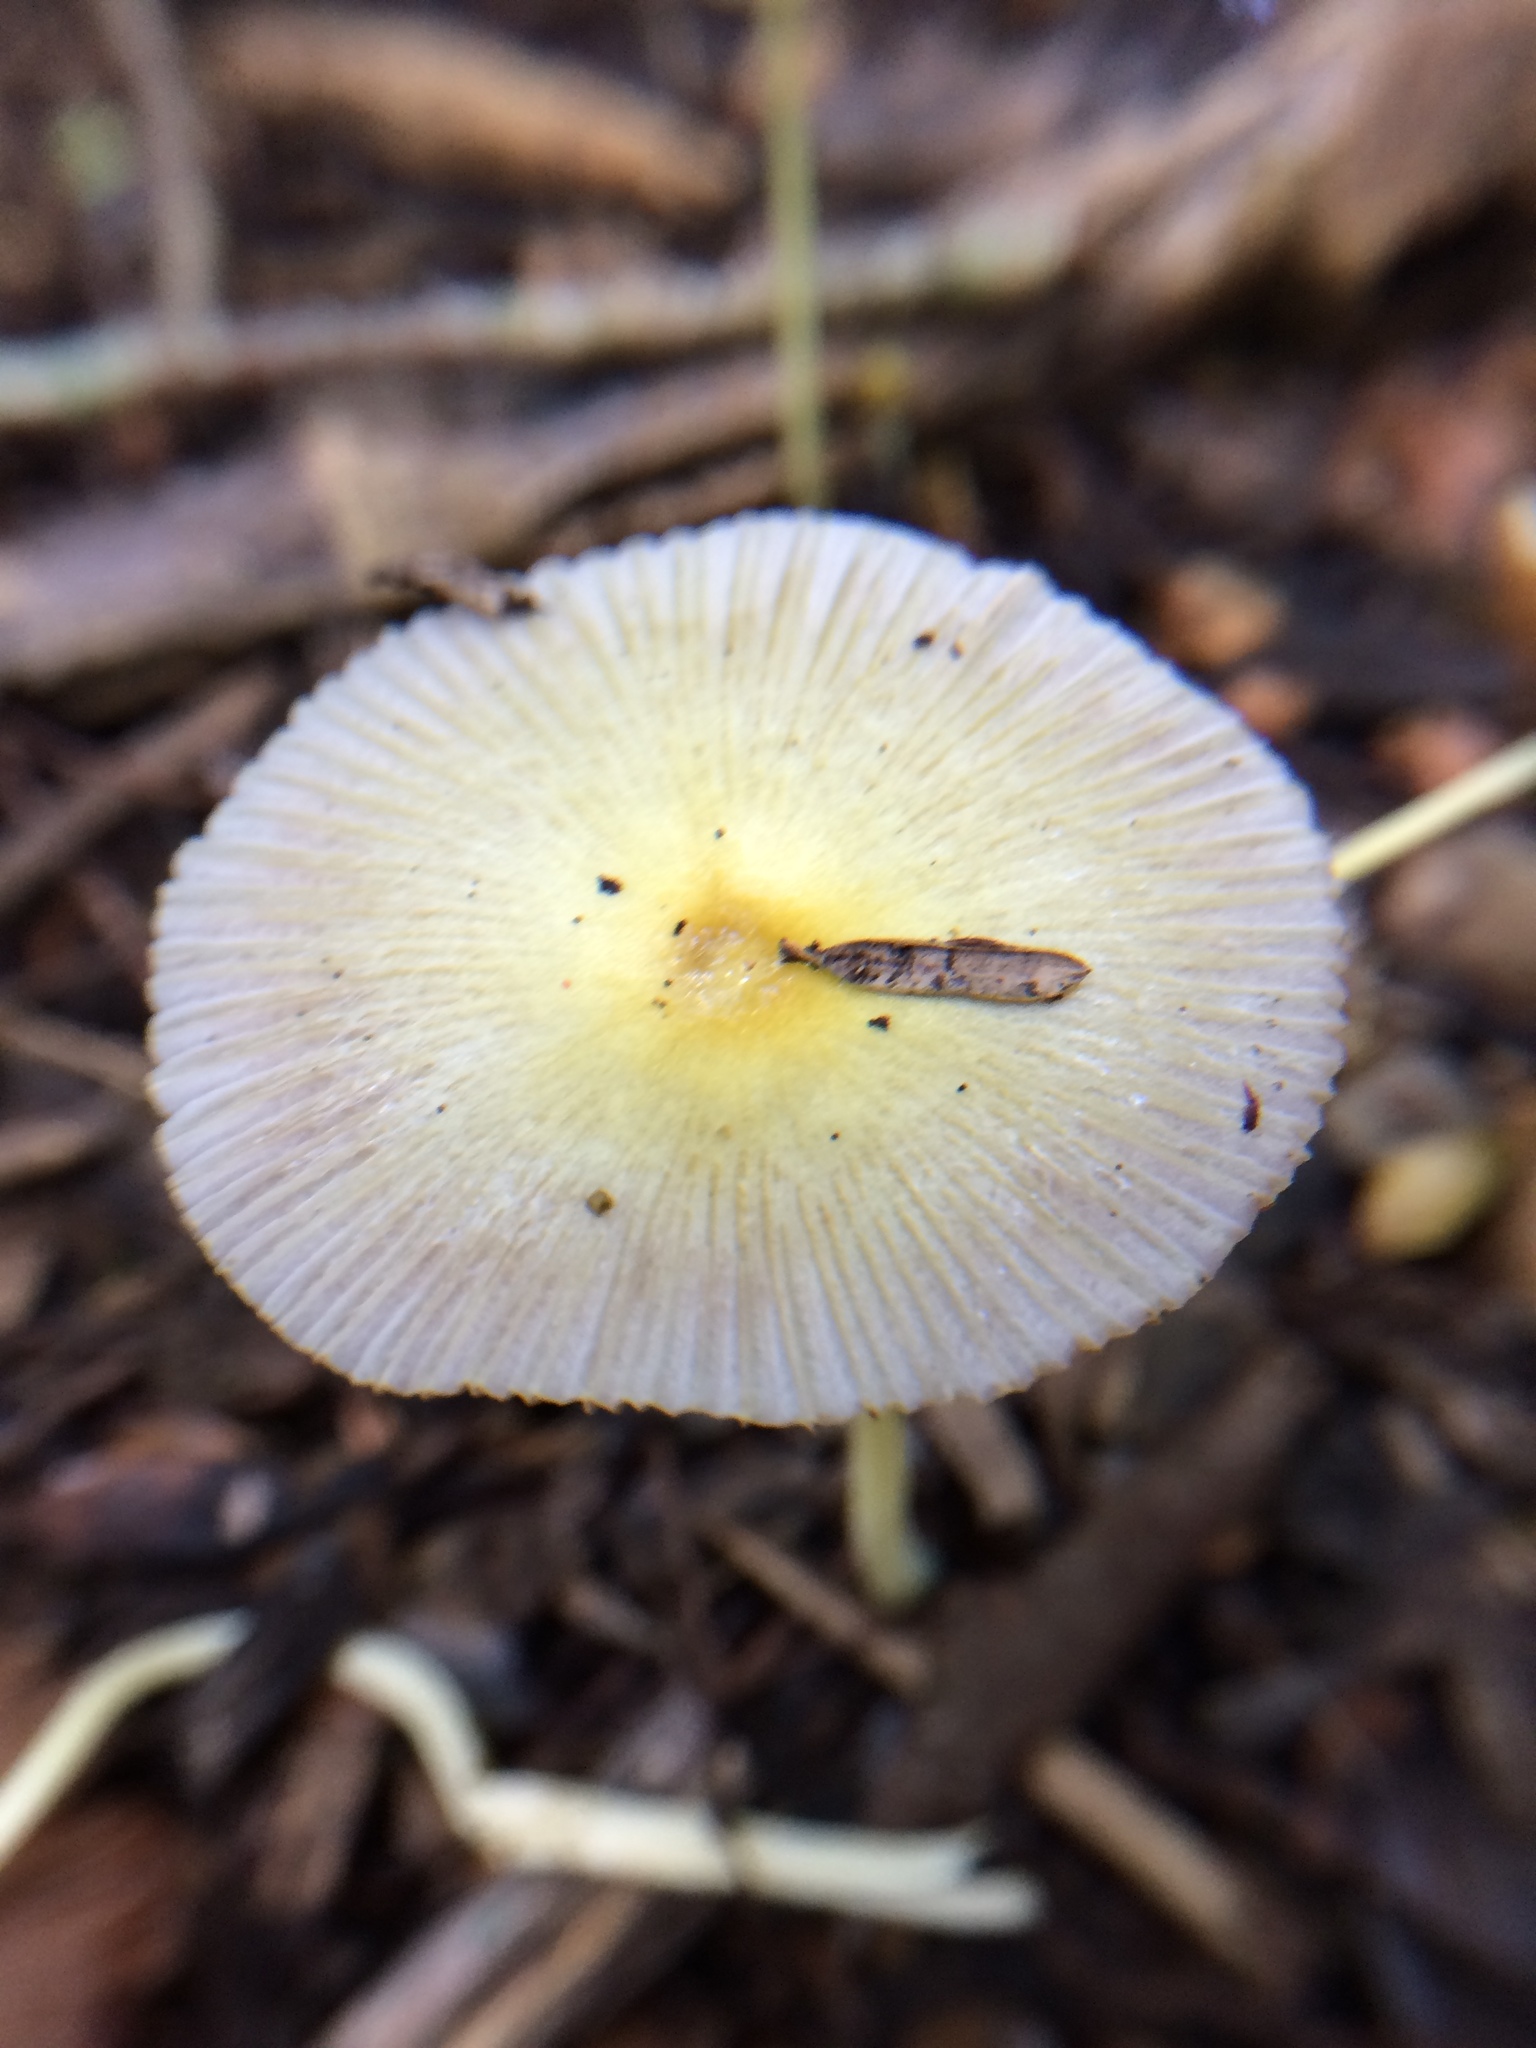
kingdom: Fungi
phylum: Basidiomycota
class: Agaricomycetes
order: Agaricales
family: Bolbitiaceae
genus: Bolbitius
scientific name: Bolbitius titubans
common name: Yellow fieldcap
